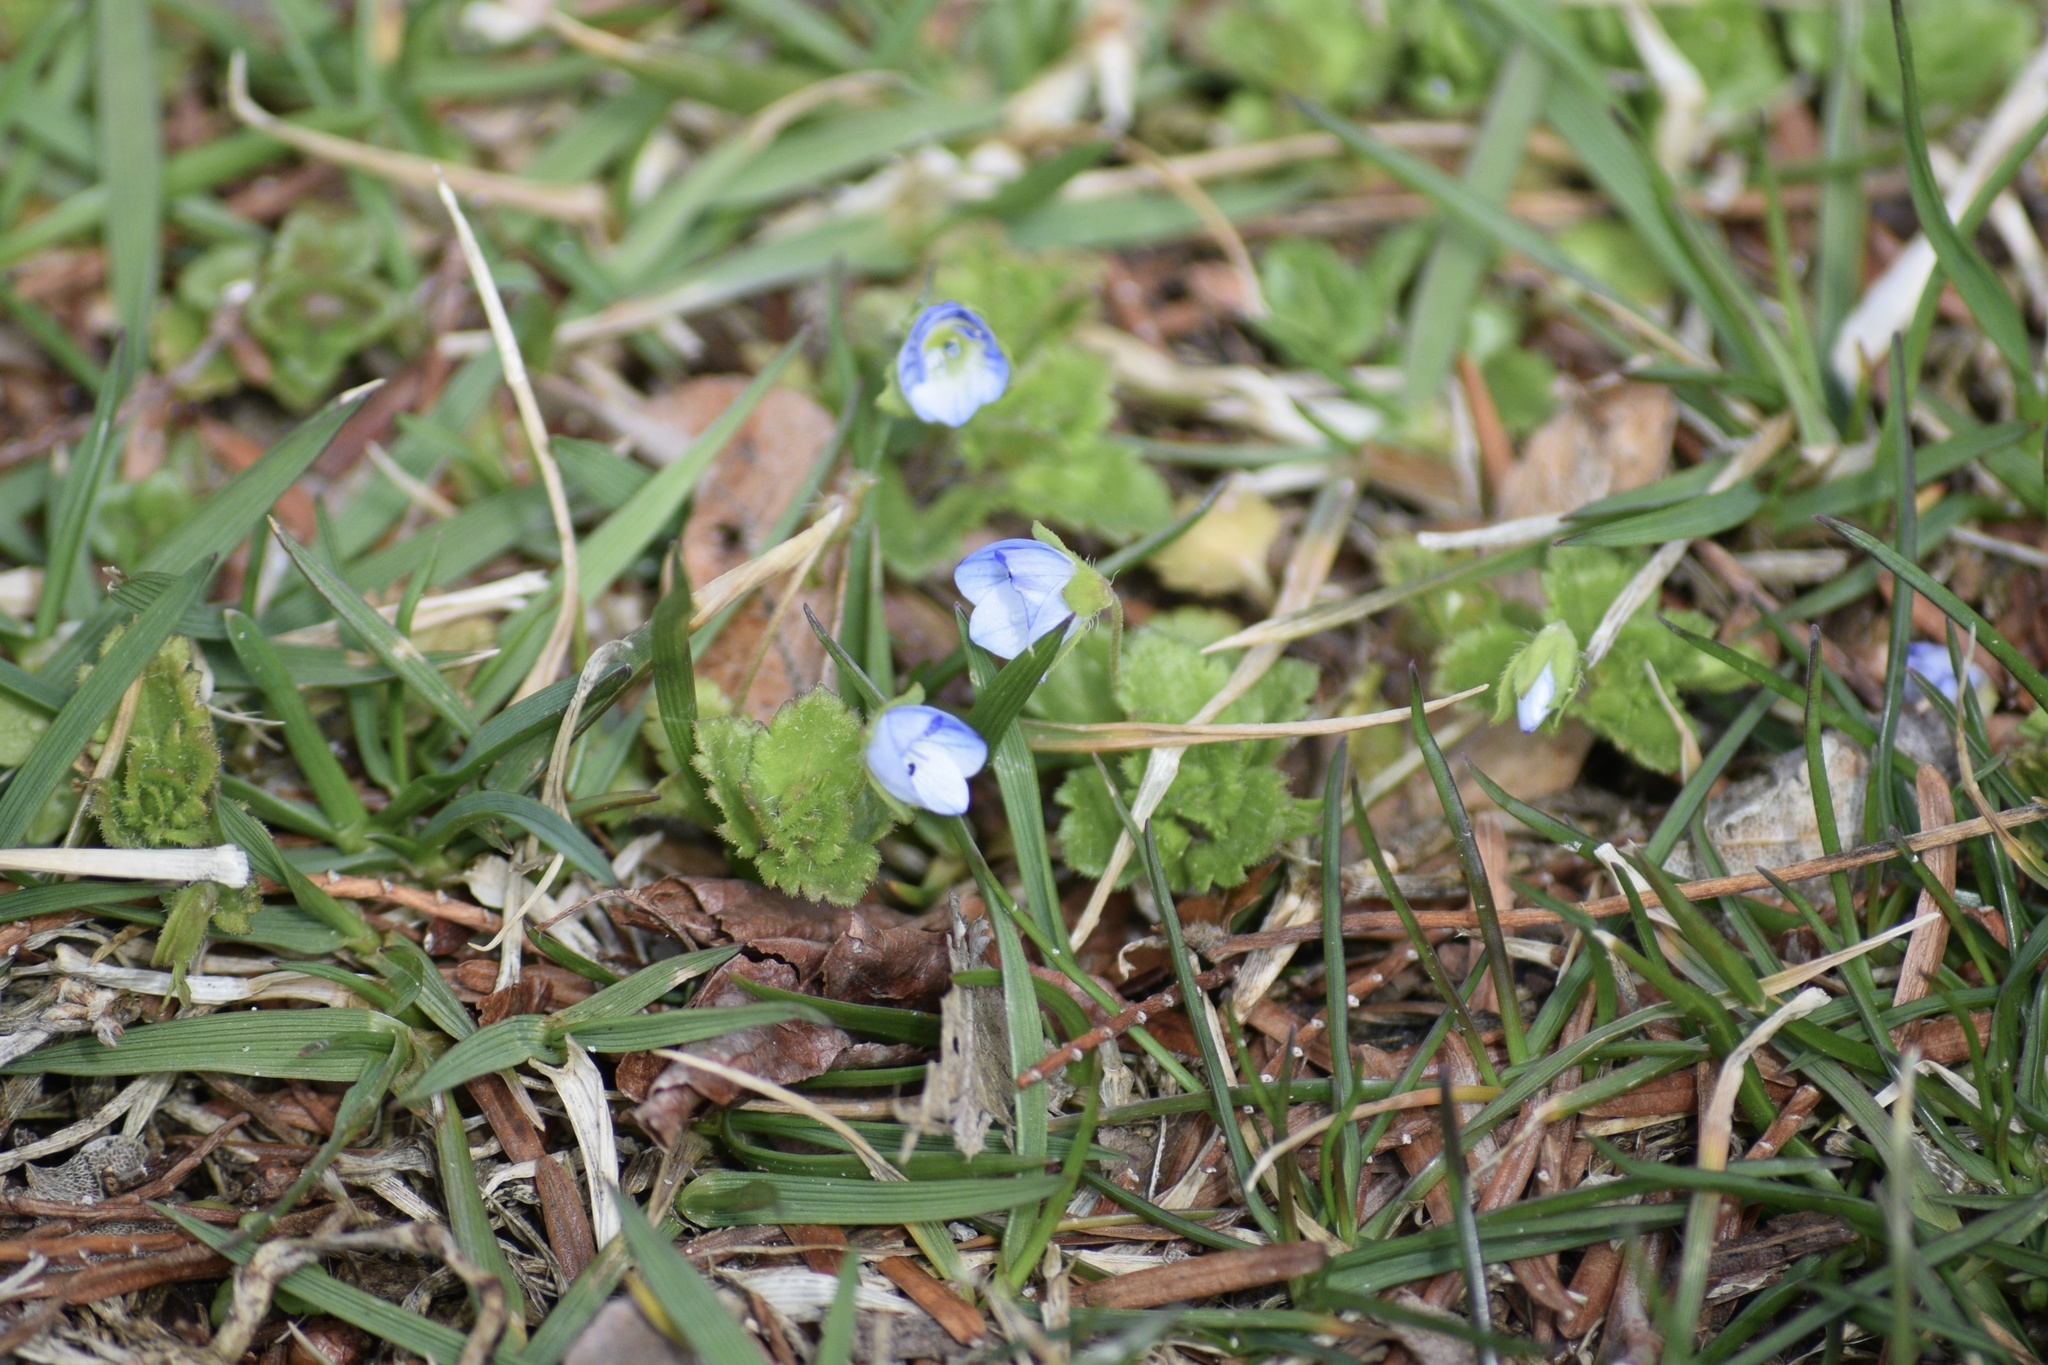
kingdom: Plantae
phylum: Tracheophyta
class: Magnoliopsida
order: Lamiales
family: Plantaginaceae
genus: Veronica
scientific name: Veronica persica
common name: Common field-speedwell
